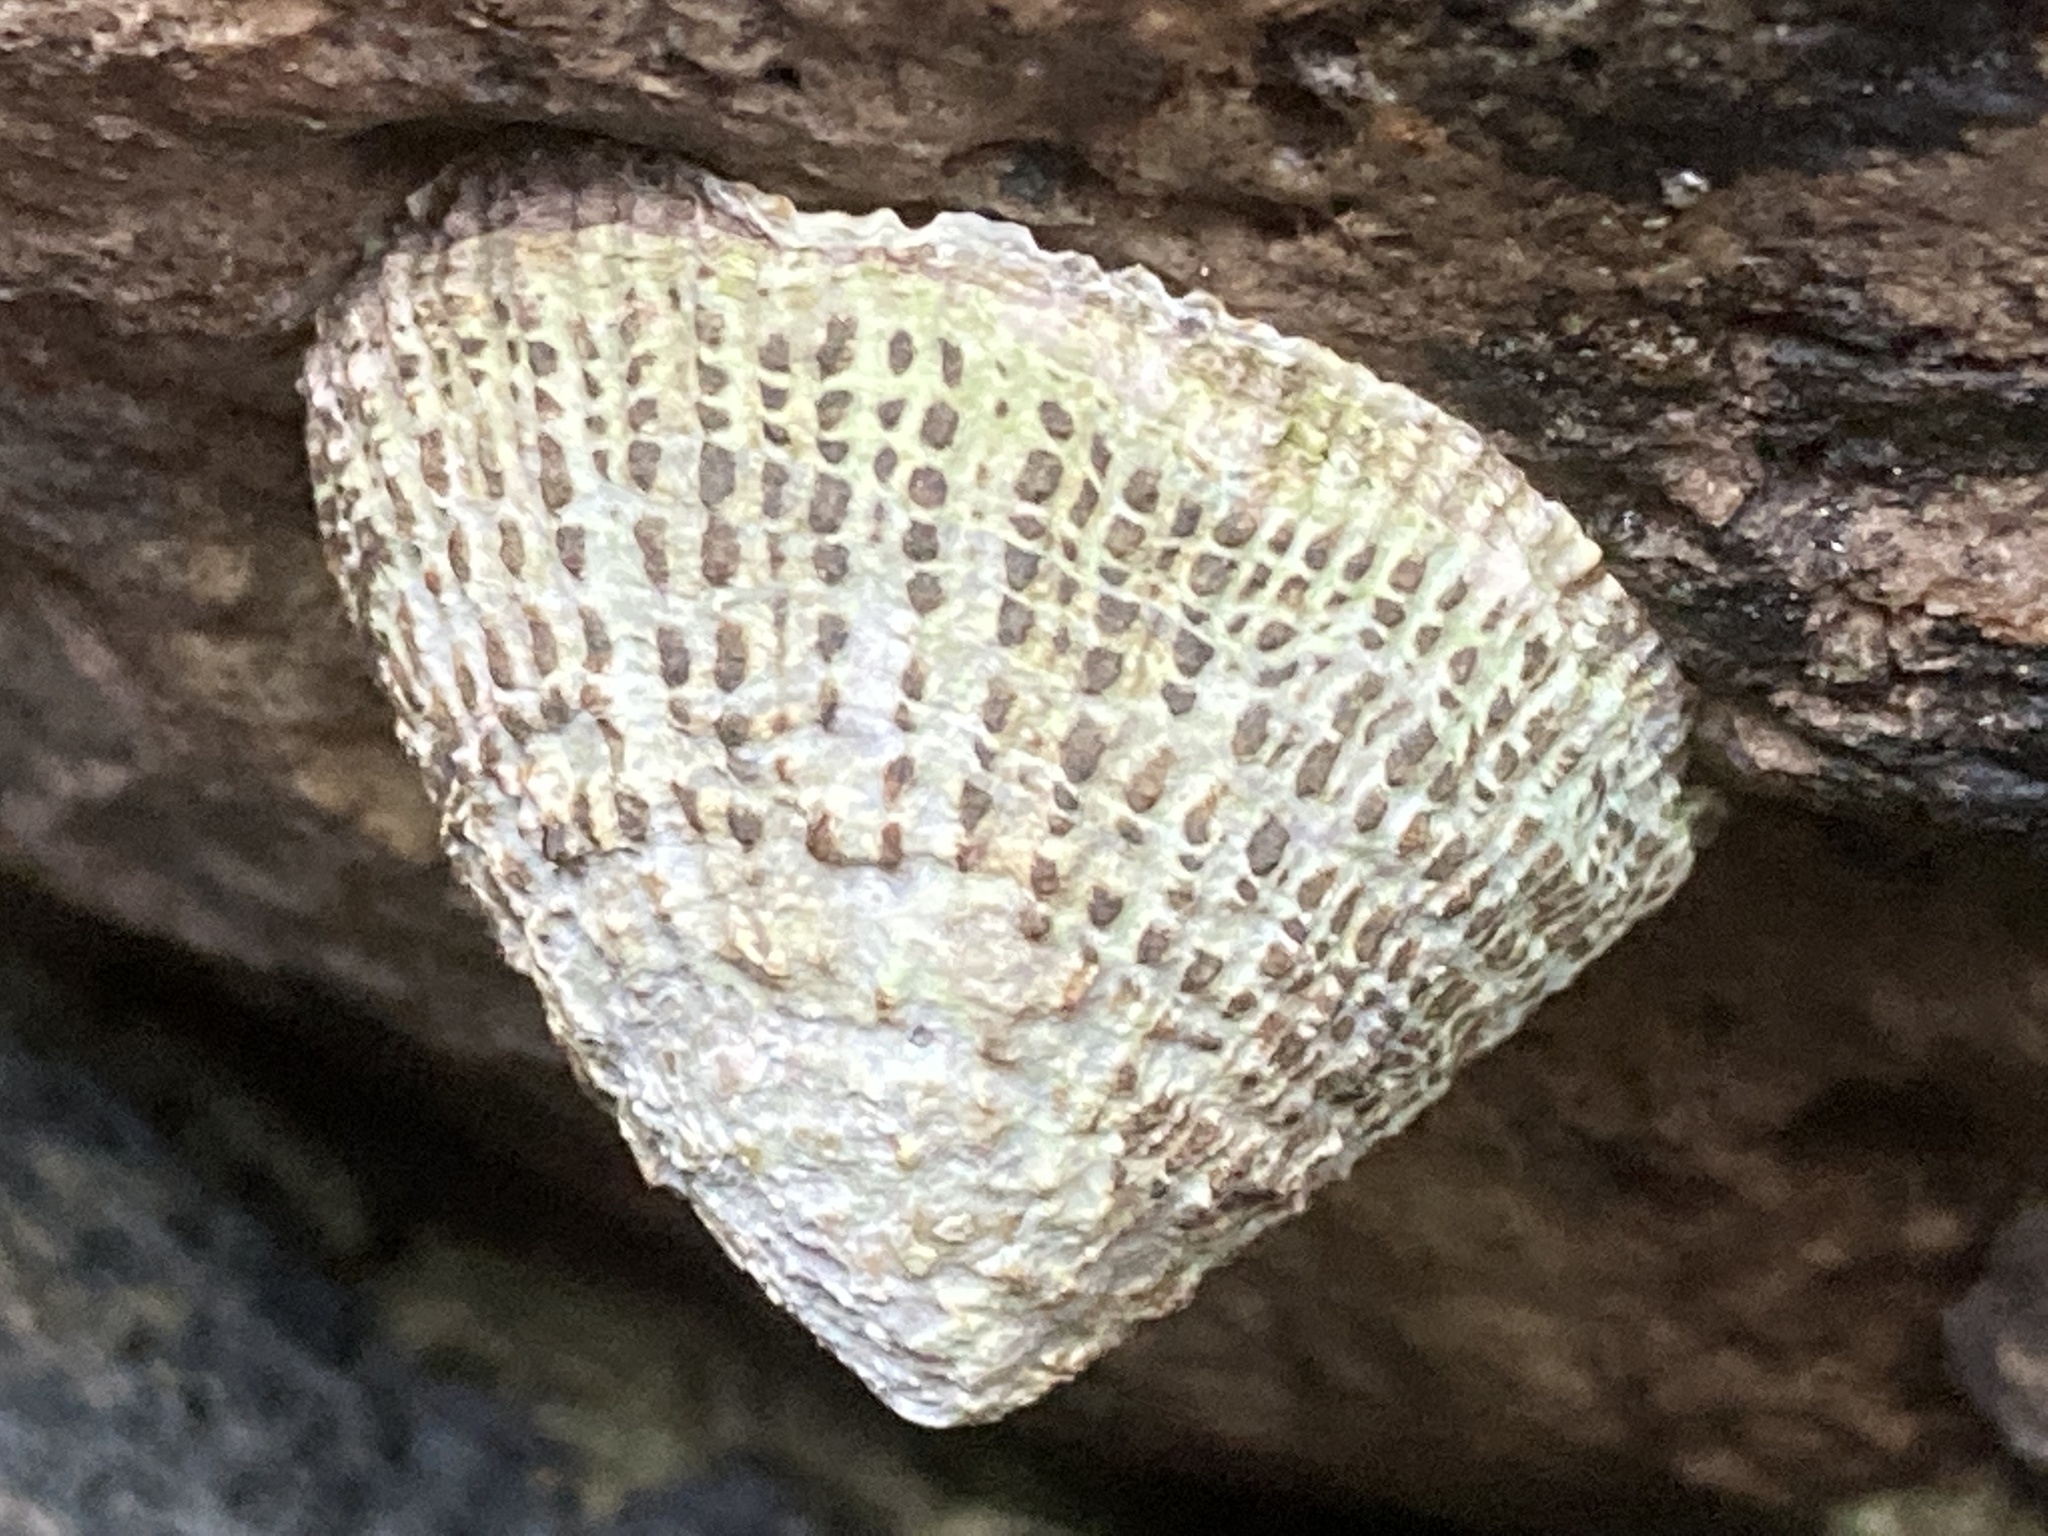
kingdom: Animalia
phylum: Mollusca
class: Gastropoda
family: Patellidae
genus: Patella
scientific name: Patella rustica
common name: Lusitanian limpet
